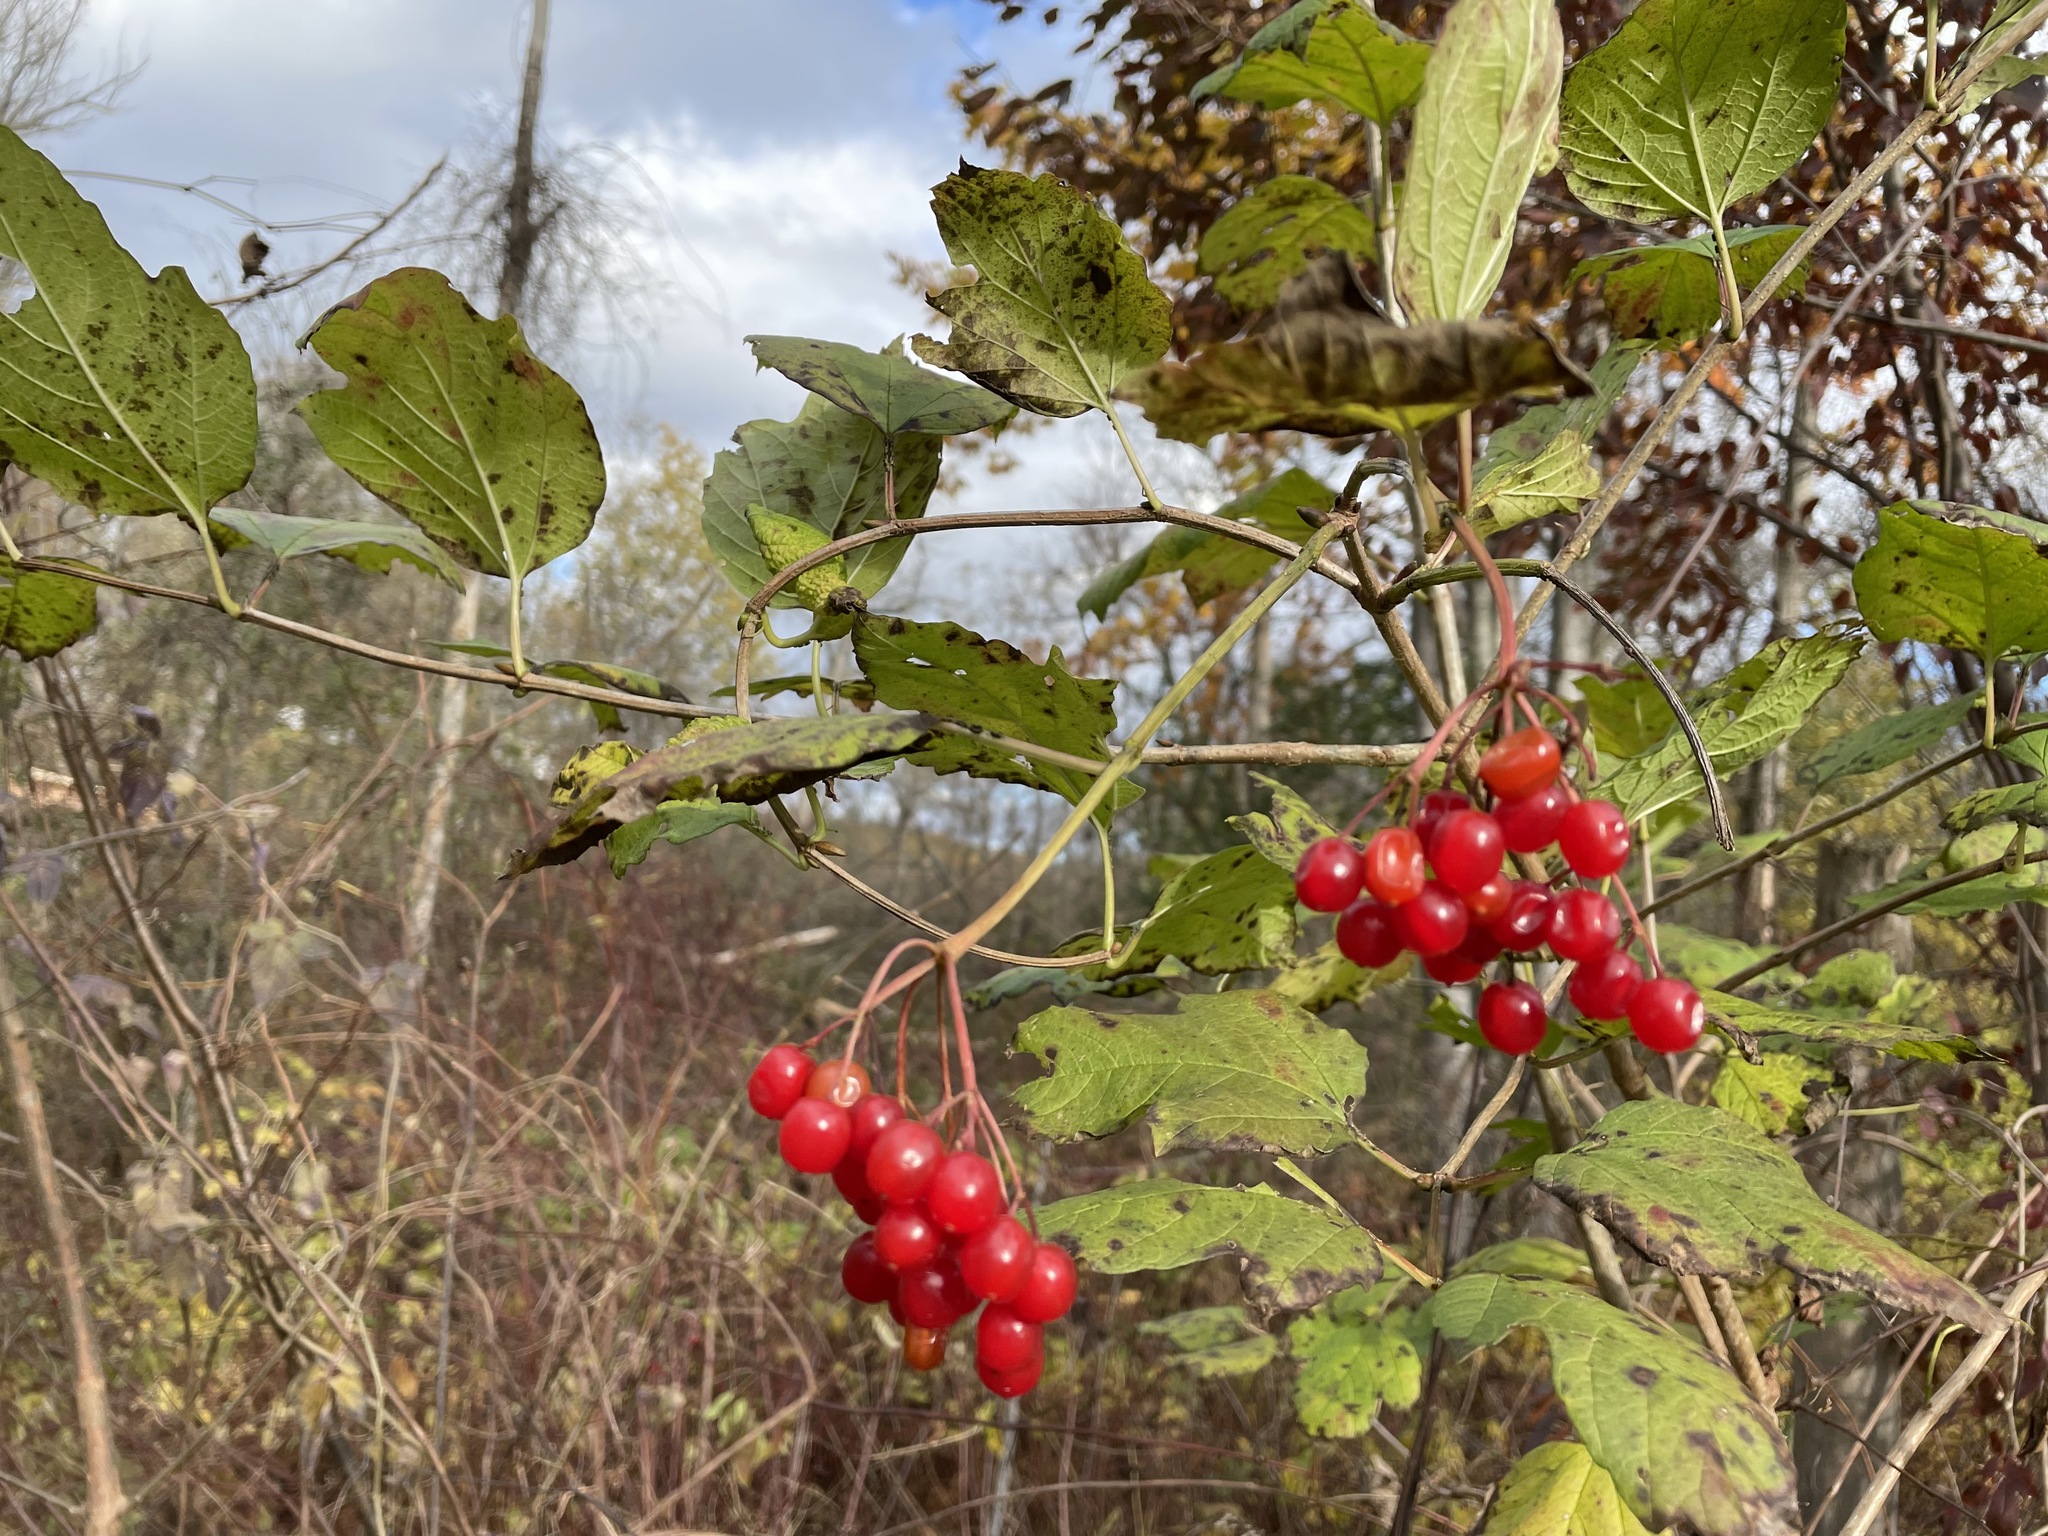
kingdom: Plantae
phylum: Tracheophyta
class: Magnoliopsida
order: Dipsacales
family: Viburnaceae
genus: Viburnum
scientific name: Viburnum opulus
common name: Guelder-rose
